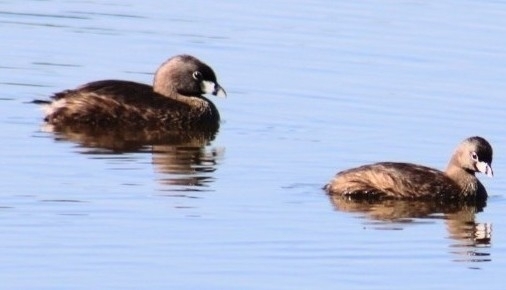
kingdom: Animalia
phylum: Chordata
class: Aves
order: Podicipediformes
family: Podicipedidae
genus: Podilymbus
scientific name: Podilymbus podiceps
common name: Pied-billed grebe
